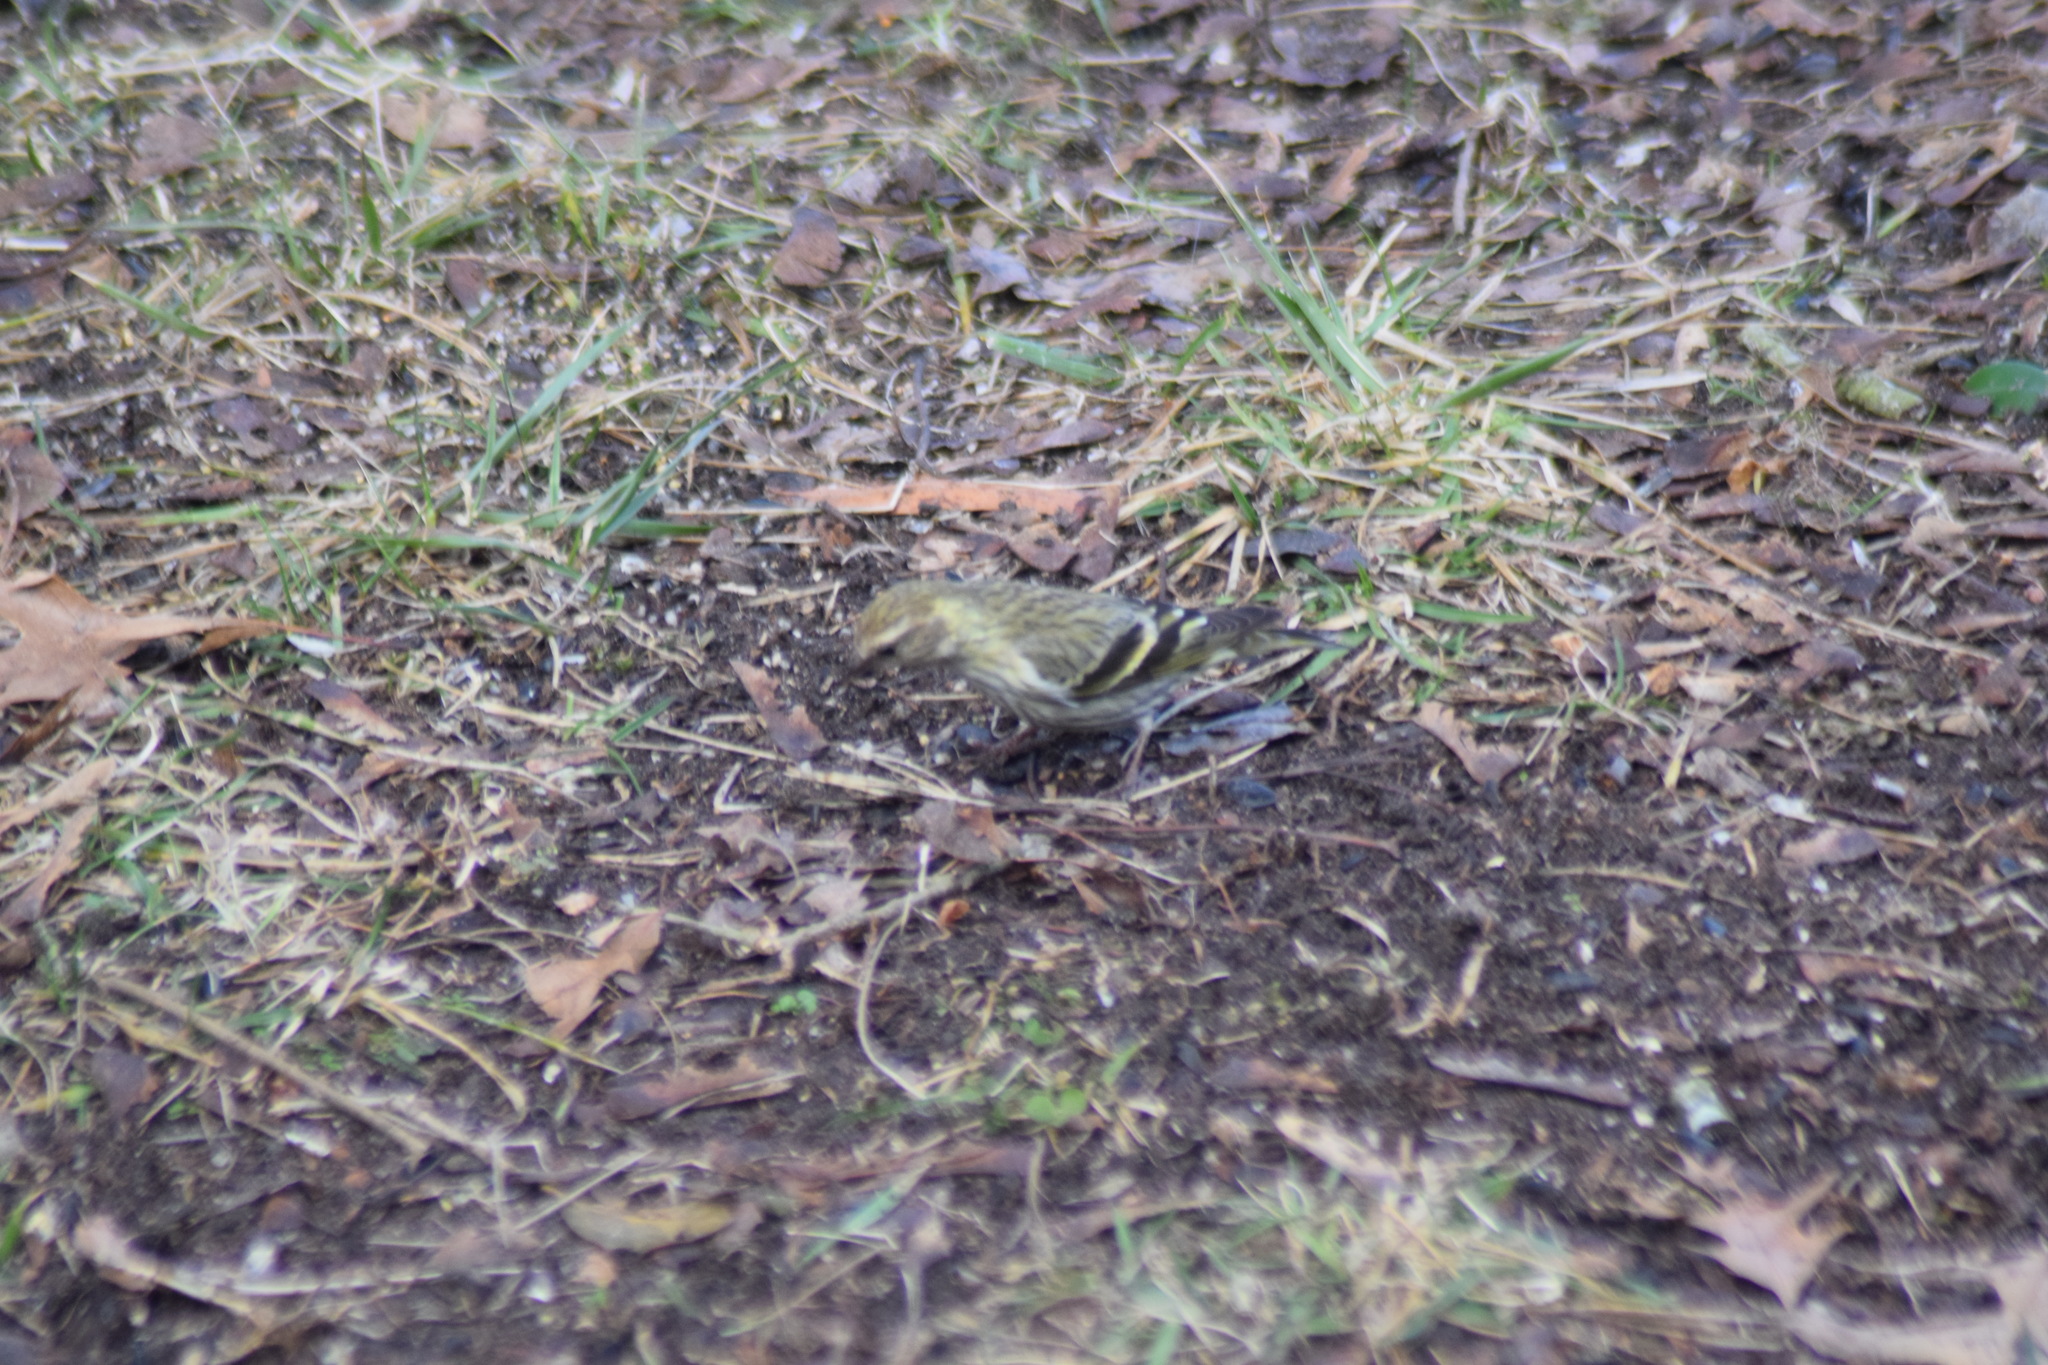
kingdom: Animalia
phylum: Chordata
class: Aves
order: Passeriformes
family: Fringillidae
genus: Spinus
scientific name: Spinus pinus
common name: Pine siskin
